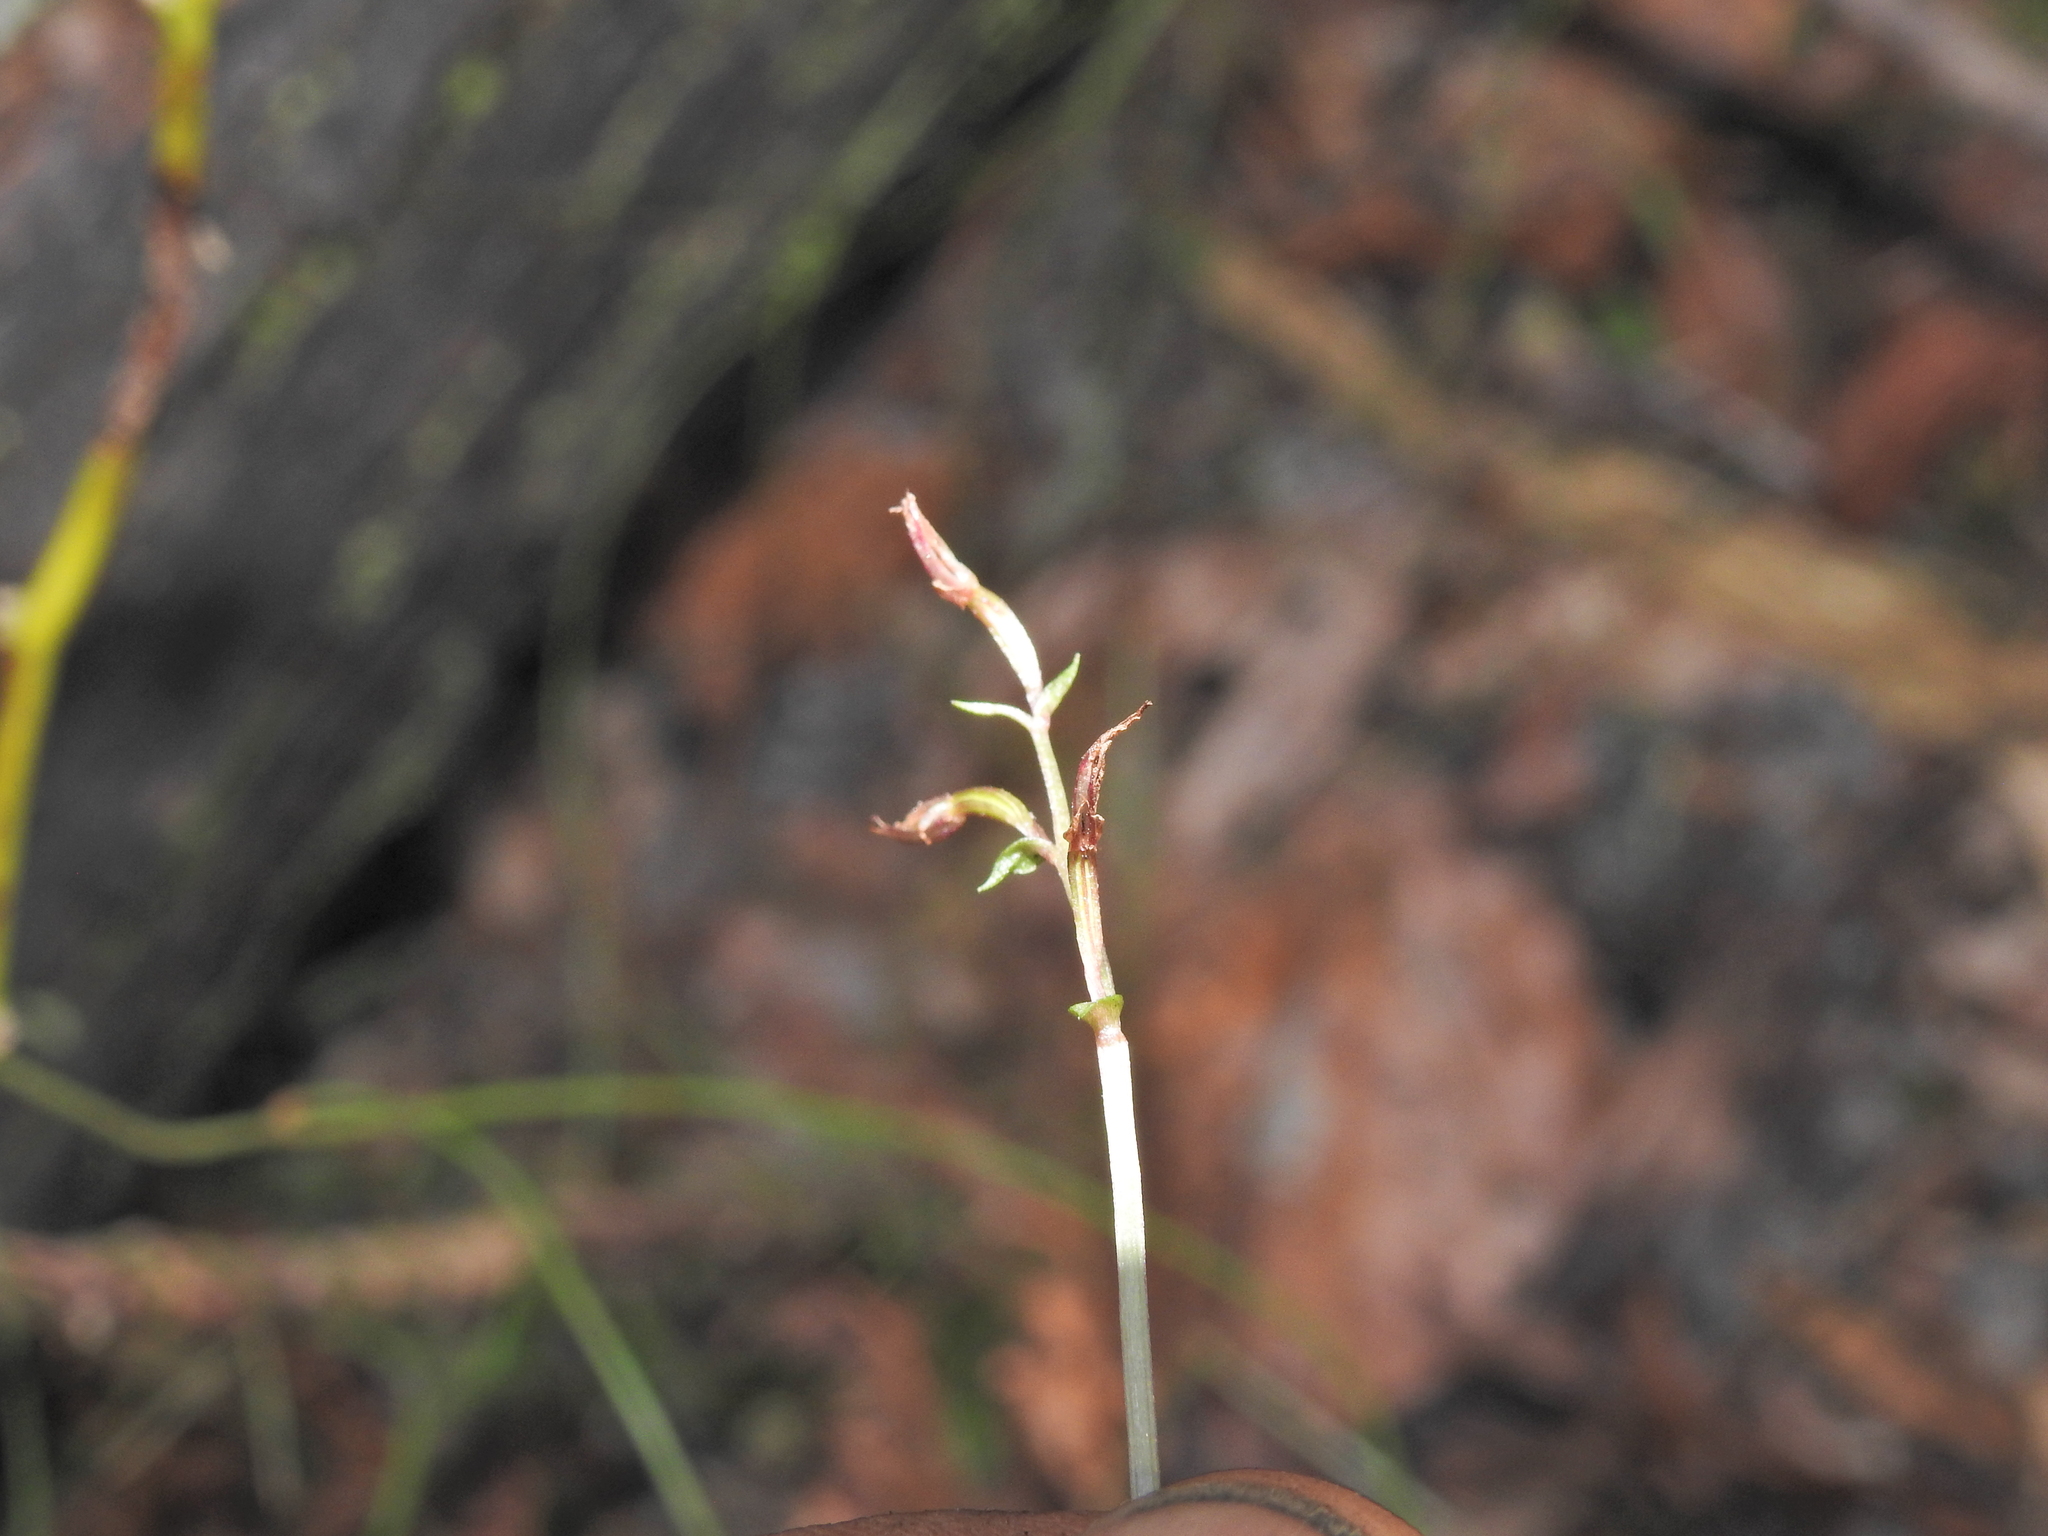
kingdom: Plantae
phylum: Tracheophyta
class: Liliopsida
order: Asparagales
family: Orchidaceae
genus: Acianthus
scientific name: Acianthus fornicatus
